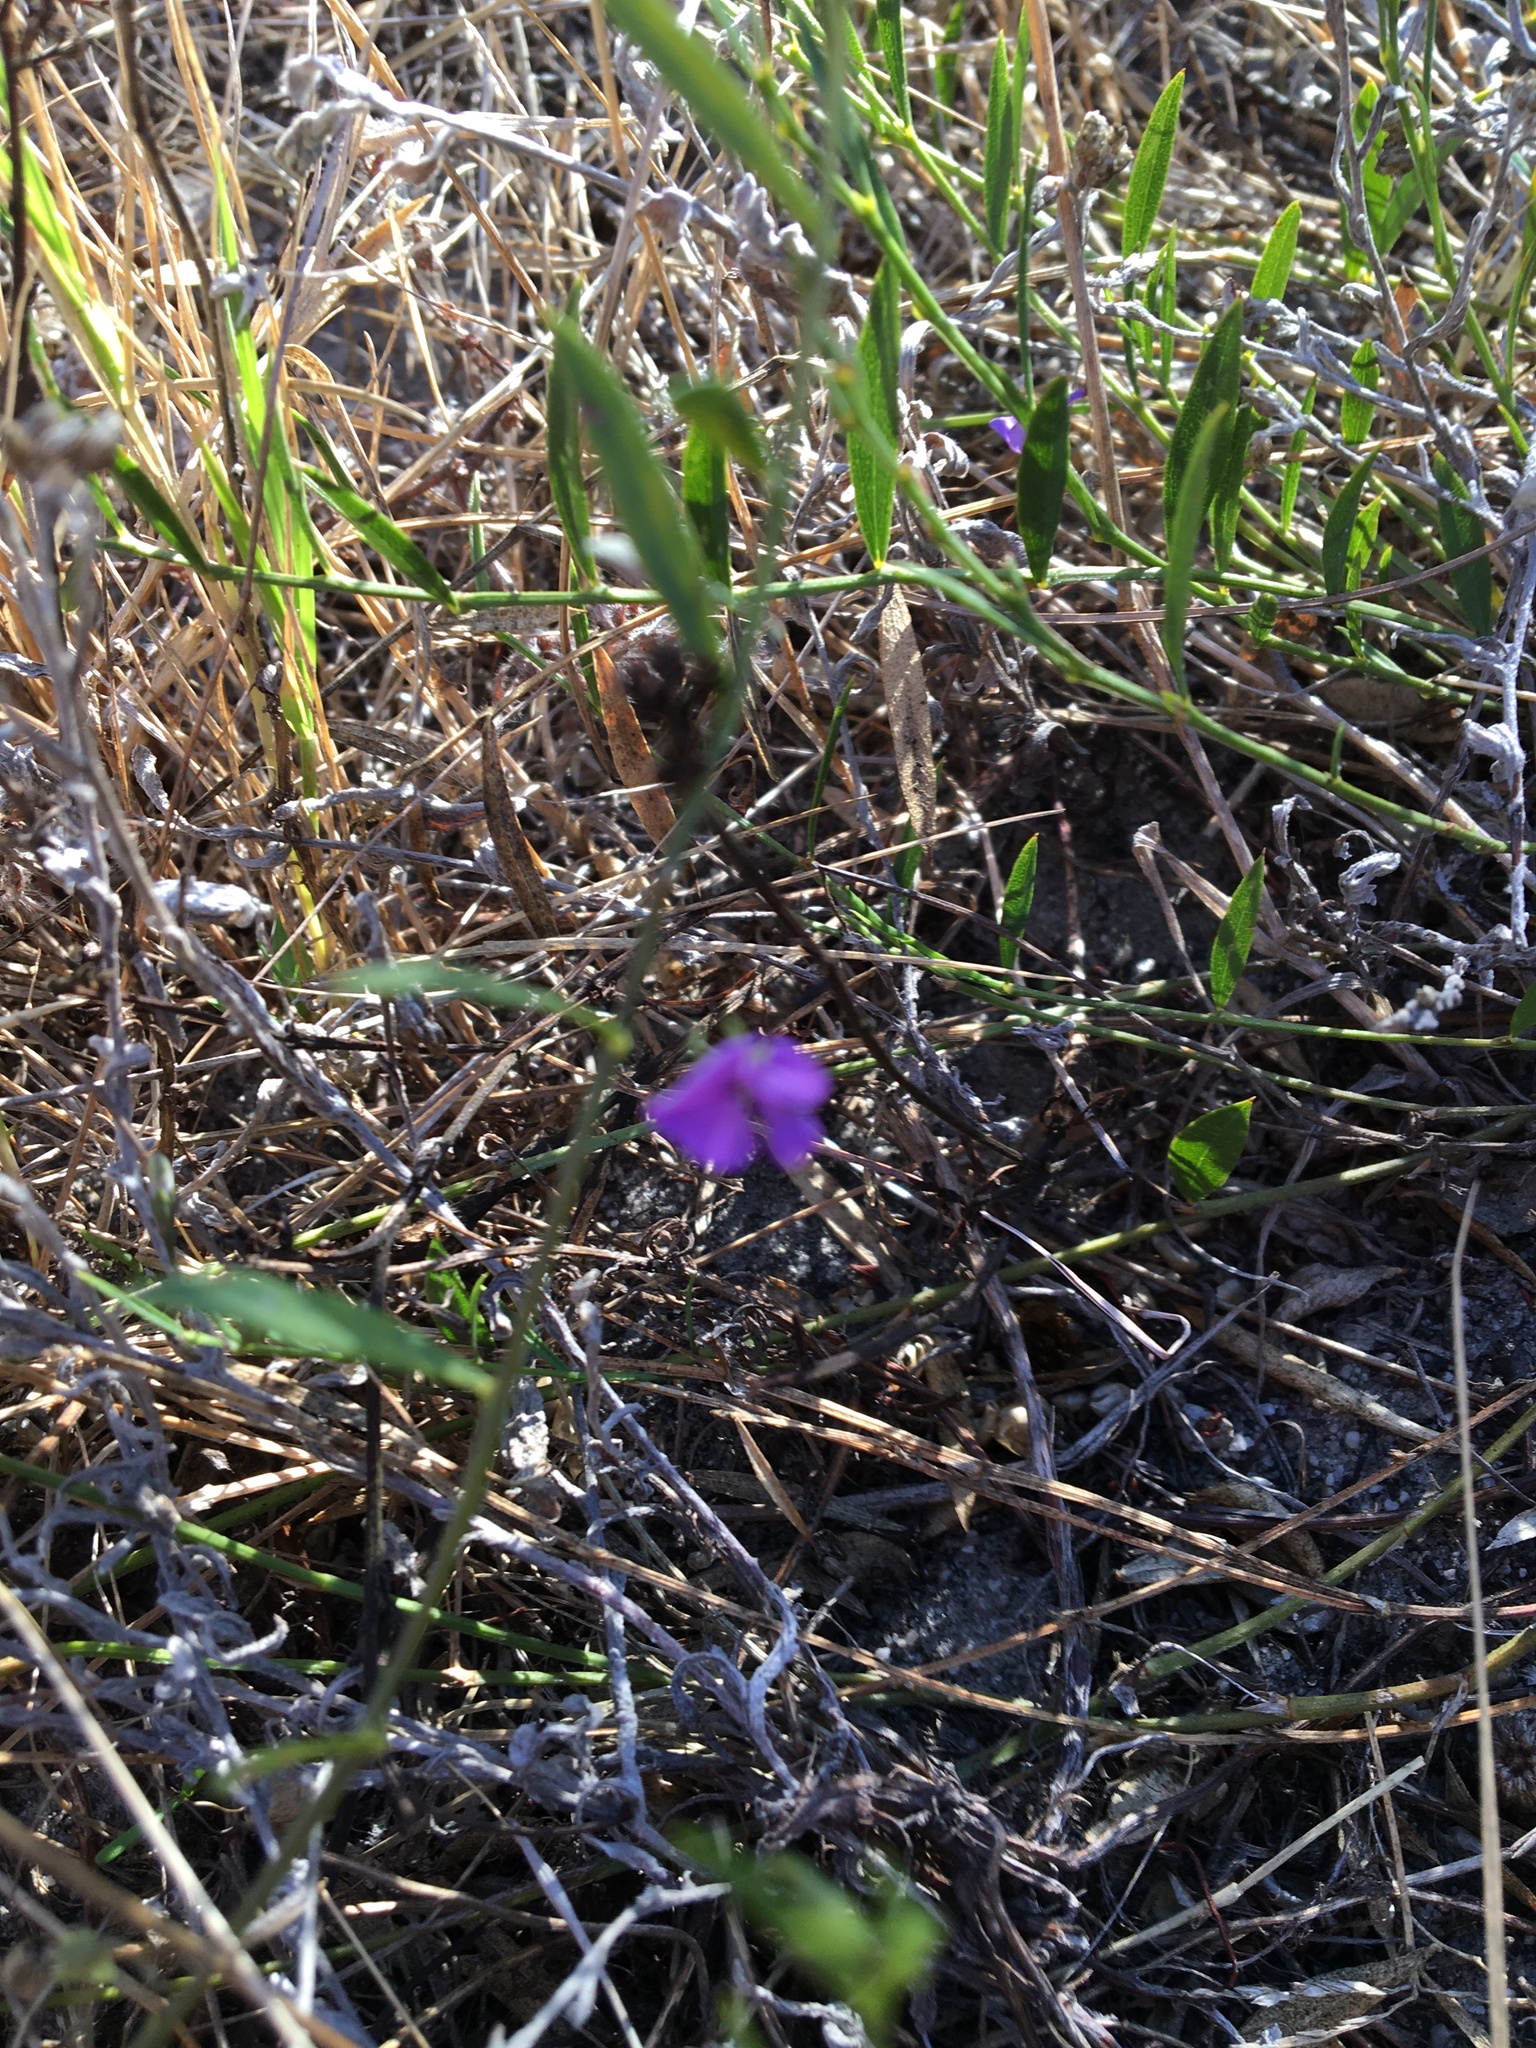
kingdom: Plantae
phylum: Tracheophyta
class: Magnoliopsida
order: Fabales
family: Fabaceae
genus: Psoralea
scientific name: Psoralea laxa
